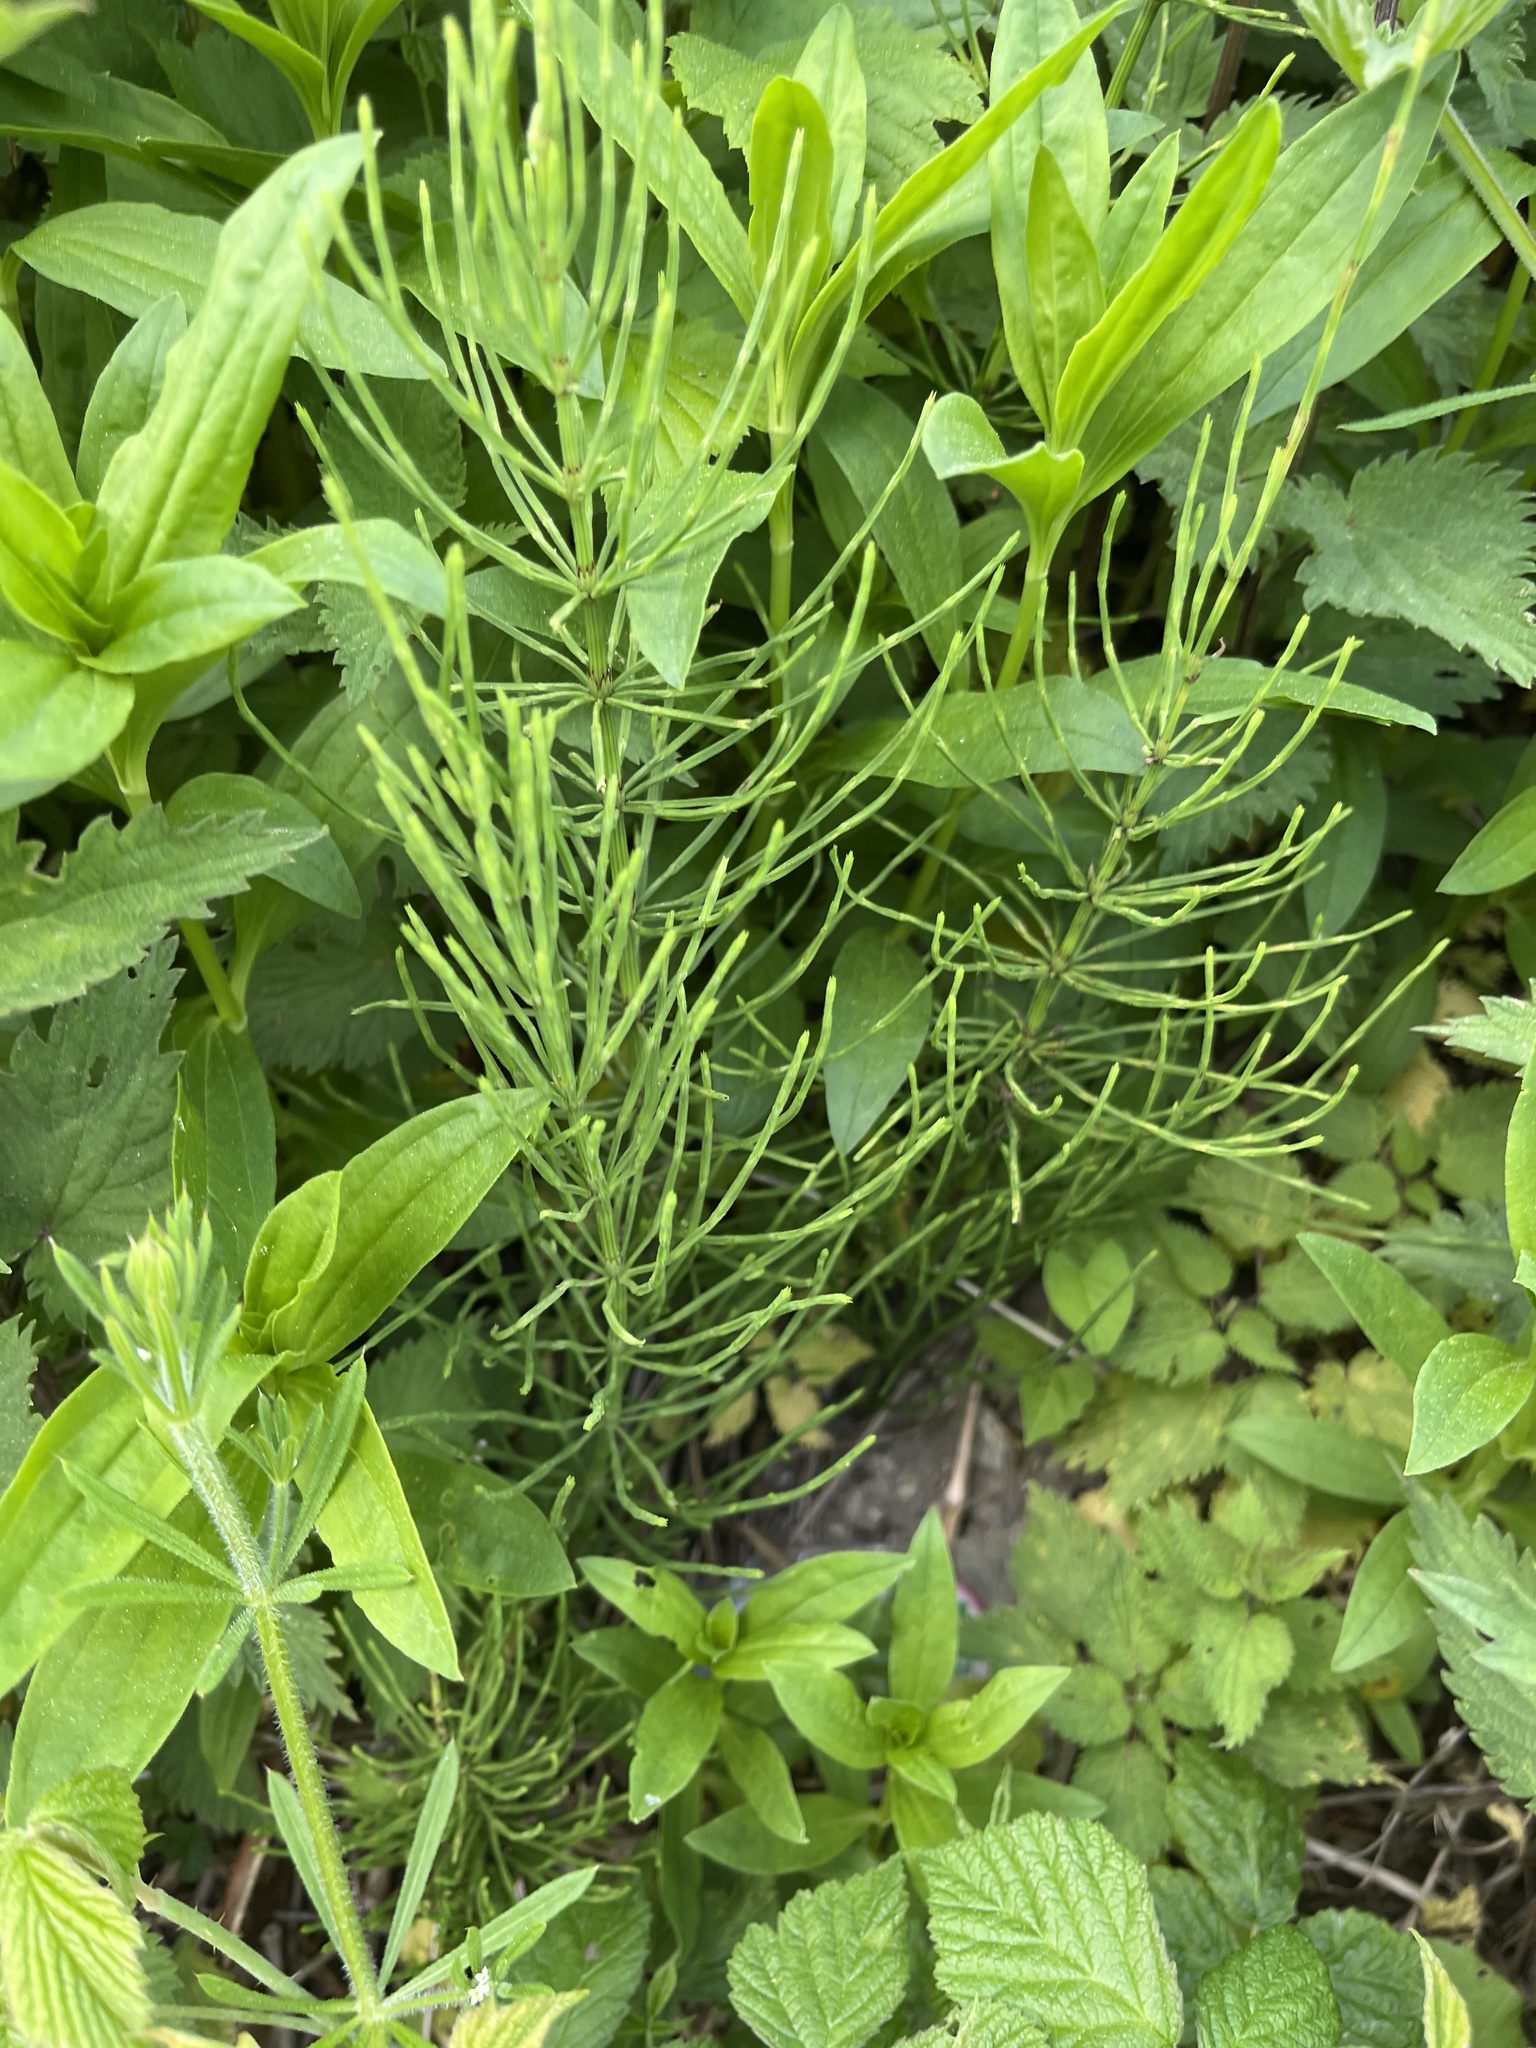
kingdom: Plantae
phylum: Tracheophyta
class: Polypodiopsida
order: Equisetales
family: Equisetaceae
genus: Equisetum
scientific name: Equisetum arvense
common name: Field horsetail
